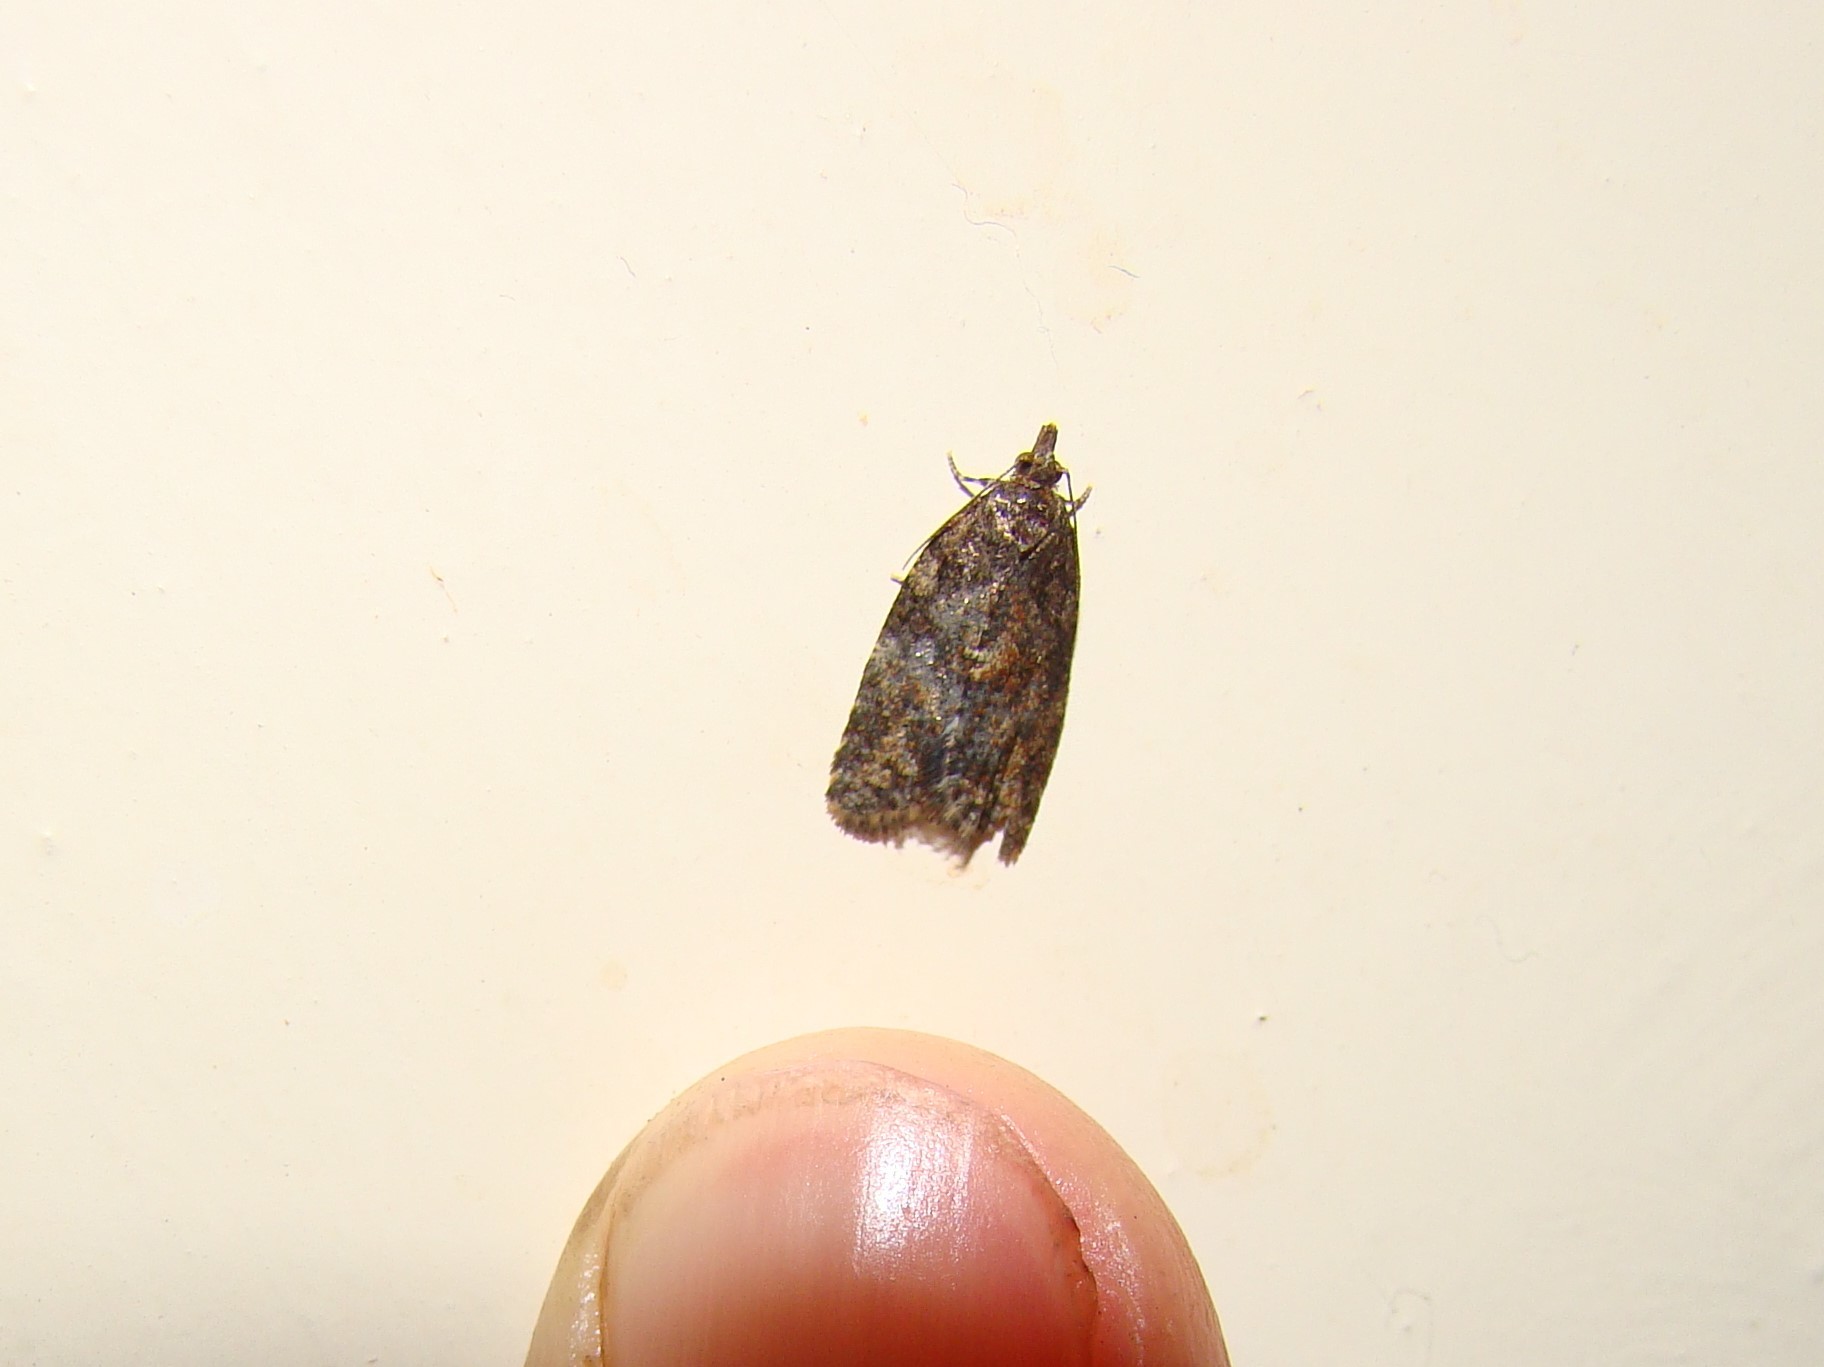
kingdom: Animalia
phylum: Arthropoda
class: Insecta
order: Lepidoptera
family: Tortricidae
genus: Capua
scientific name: Capua intractana
